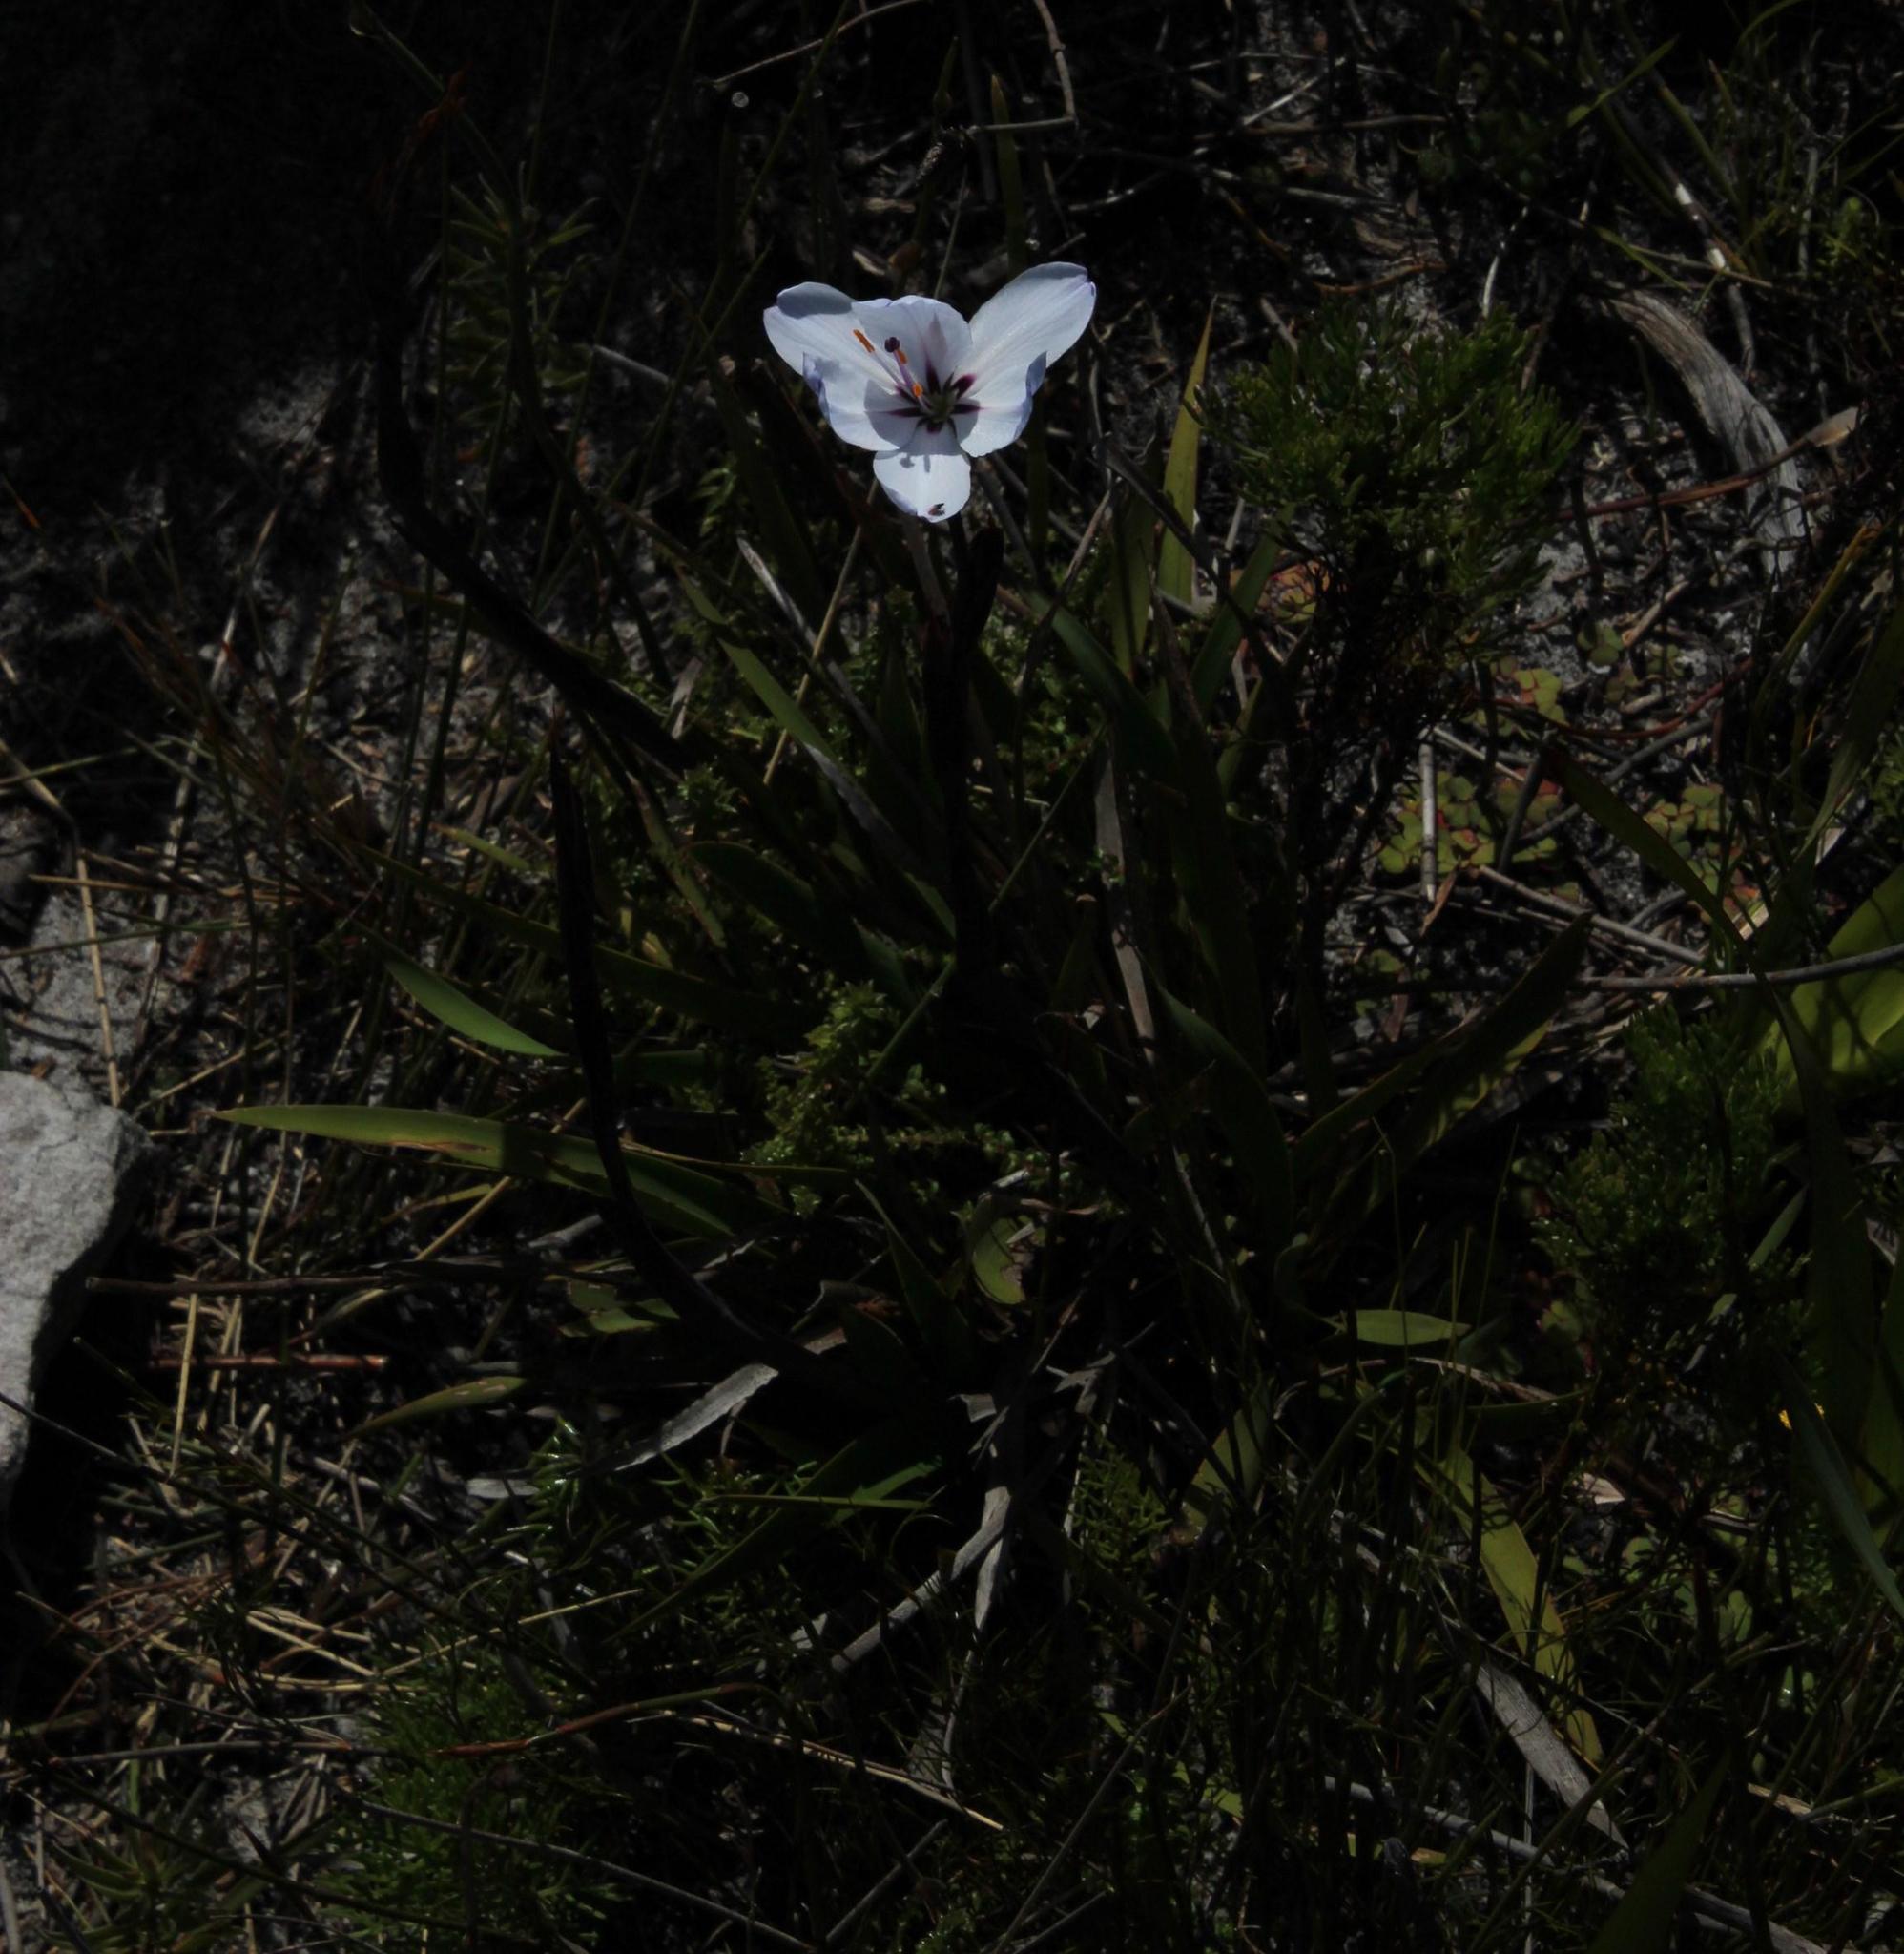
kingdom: Plantae
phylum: Tracheophyta
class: Liliopsida
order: Asparagales
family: Iridaceae
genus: Aristea
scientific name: Aristea spiralis
